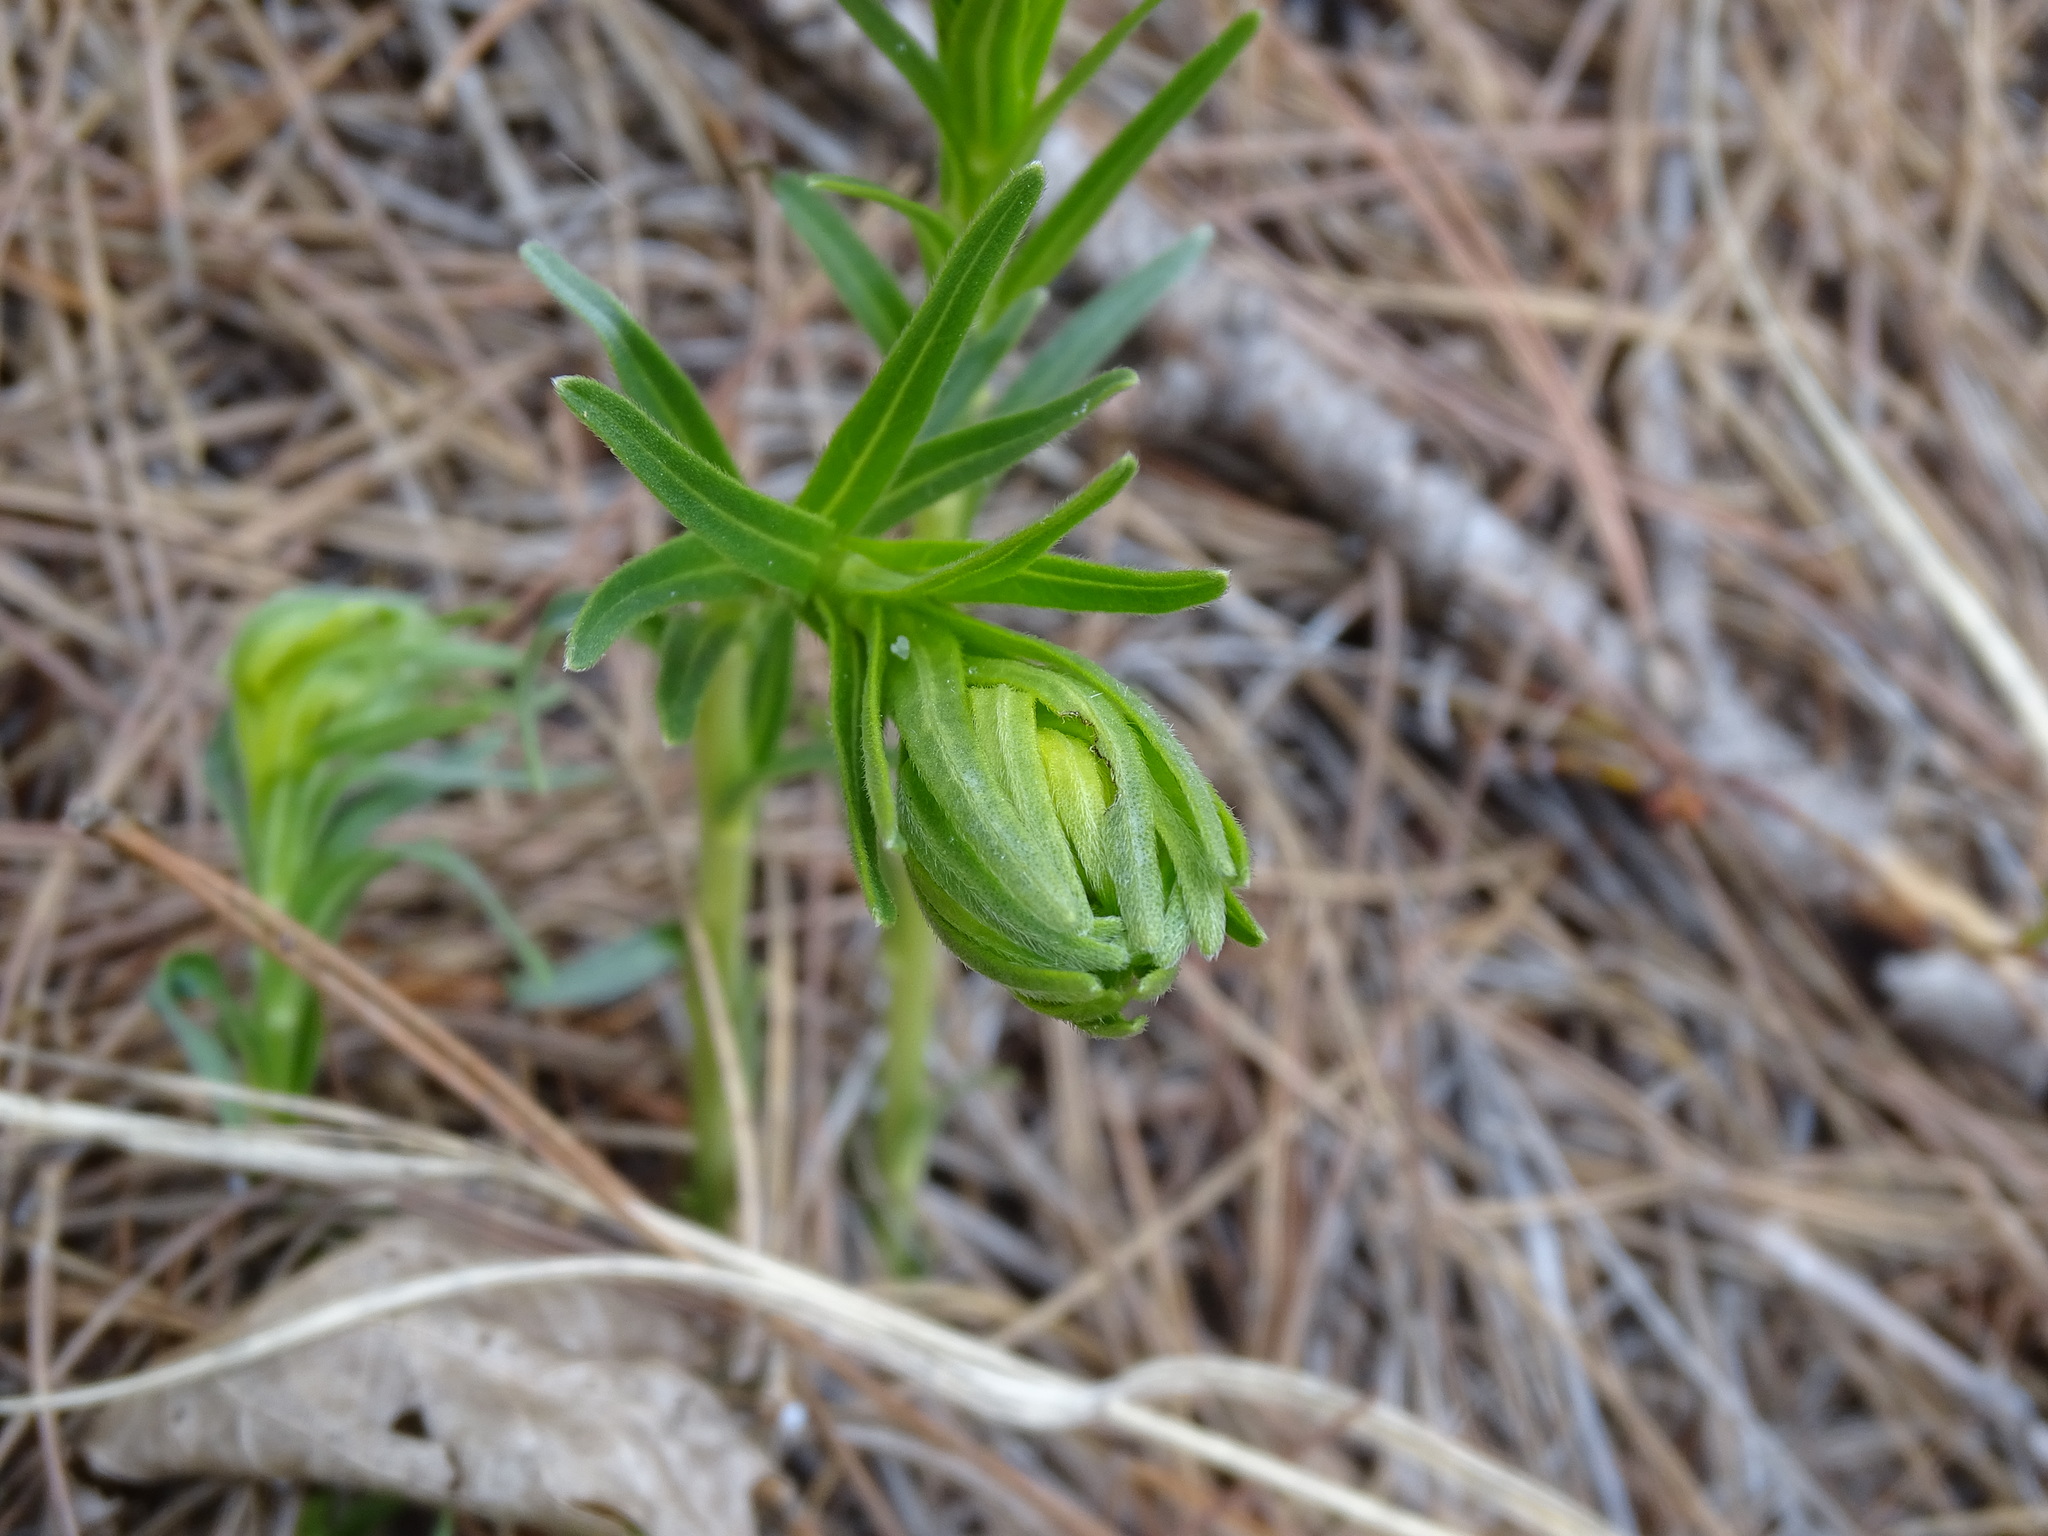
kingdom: Plantae
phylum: Tracheophyta
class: Magnoliopsida
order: Boraginales
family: Boraginaceae
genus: Lithospermum
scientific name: Lithospermum caroliniense
